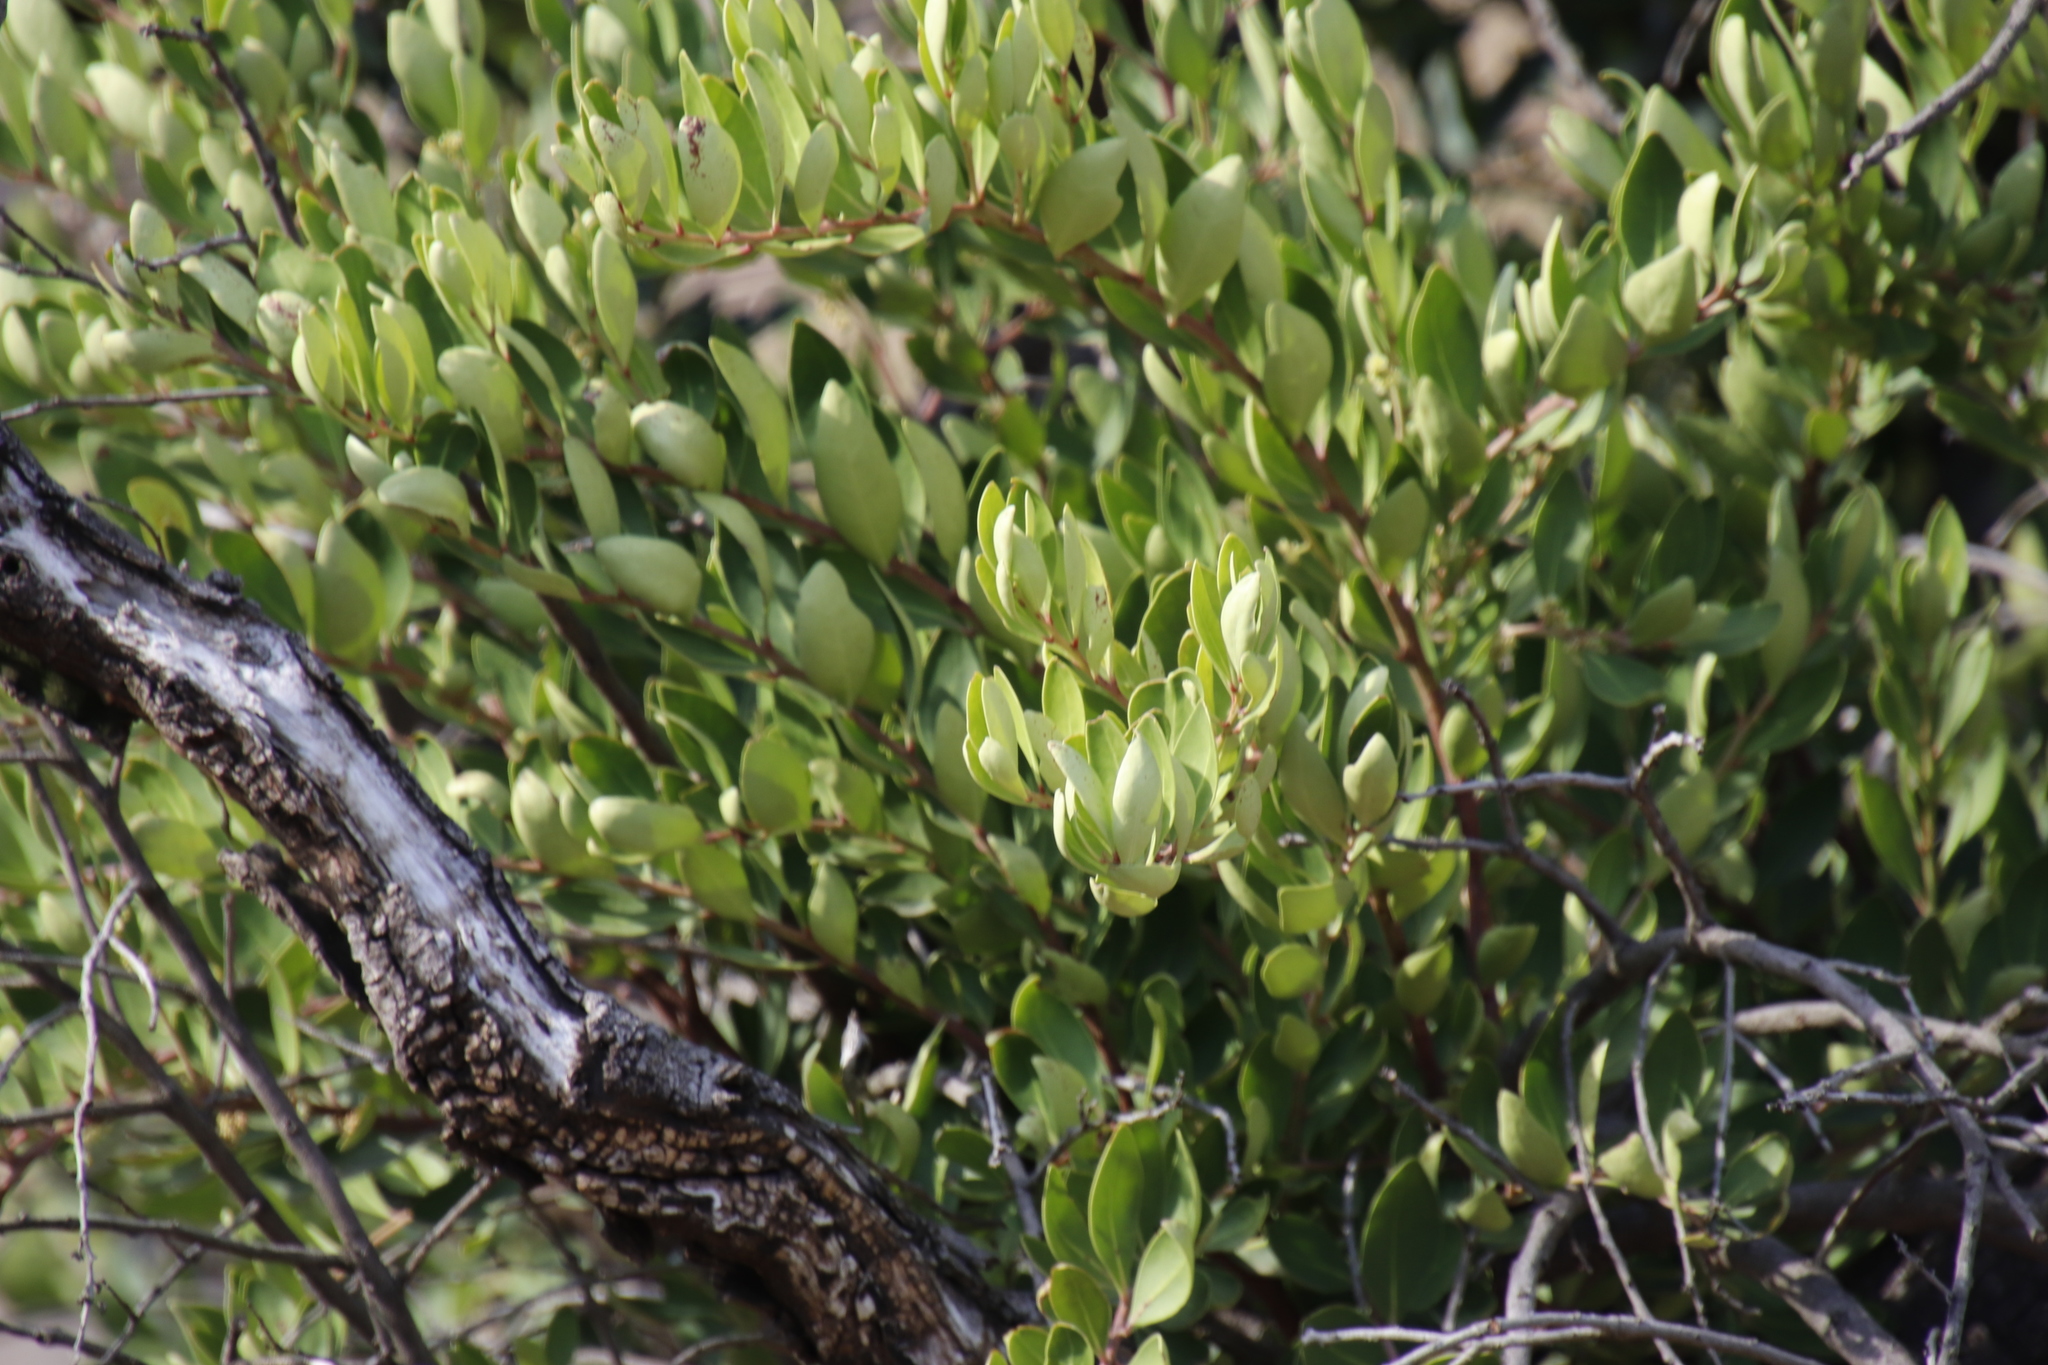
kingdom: Plantae
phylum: Tracheophyta
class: Magnoliopsida
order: Celastrales
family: Celastraceae
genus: Gymnosporia
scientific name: Gymnosporia laurina
